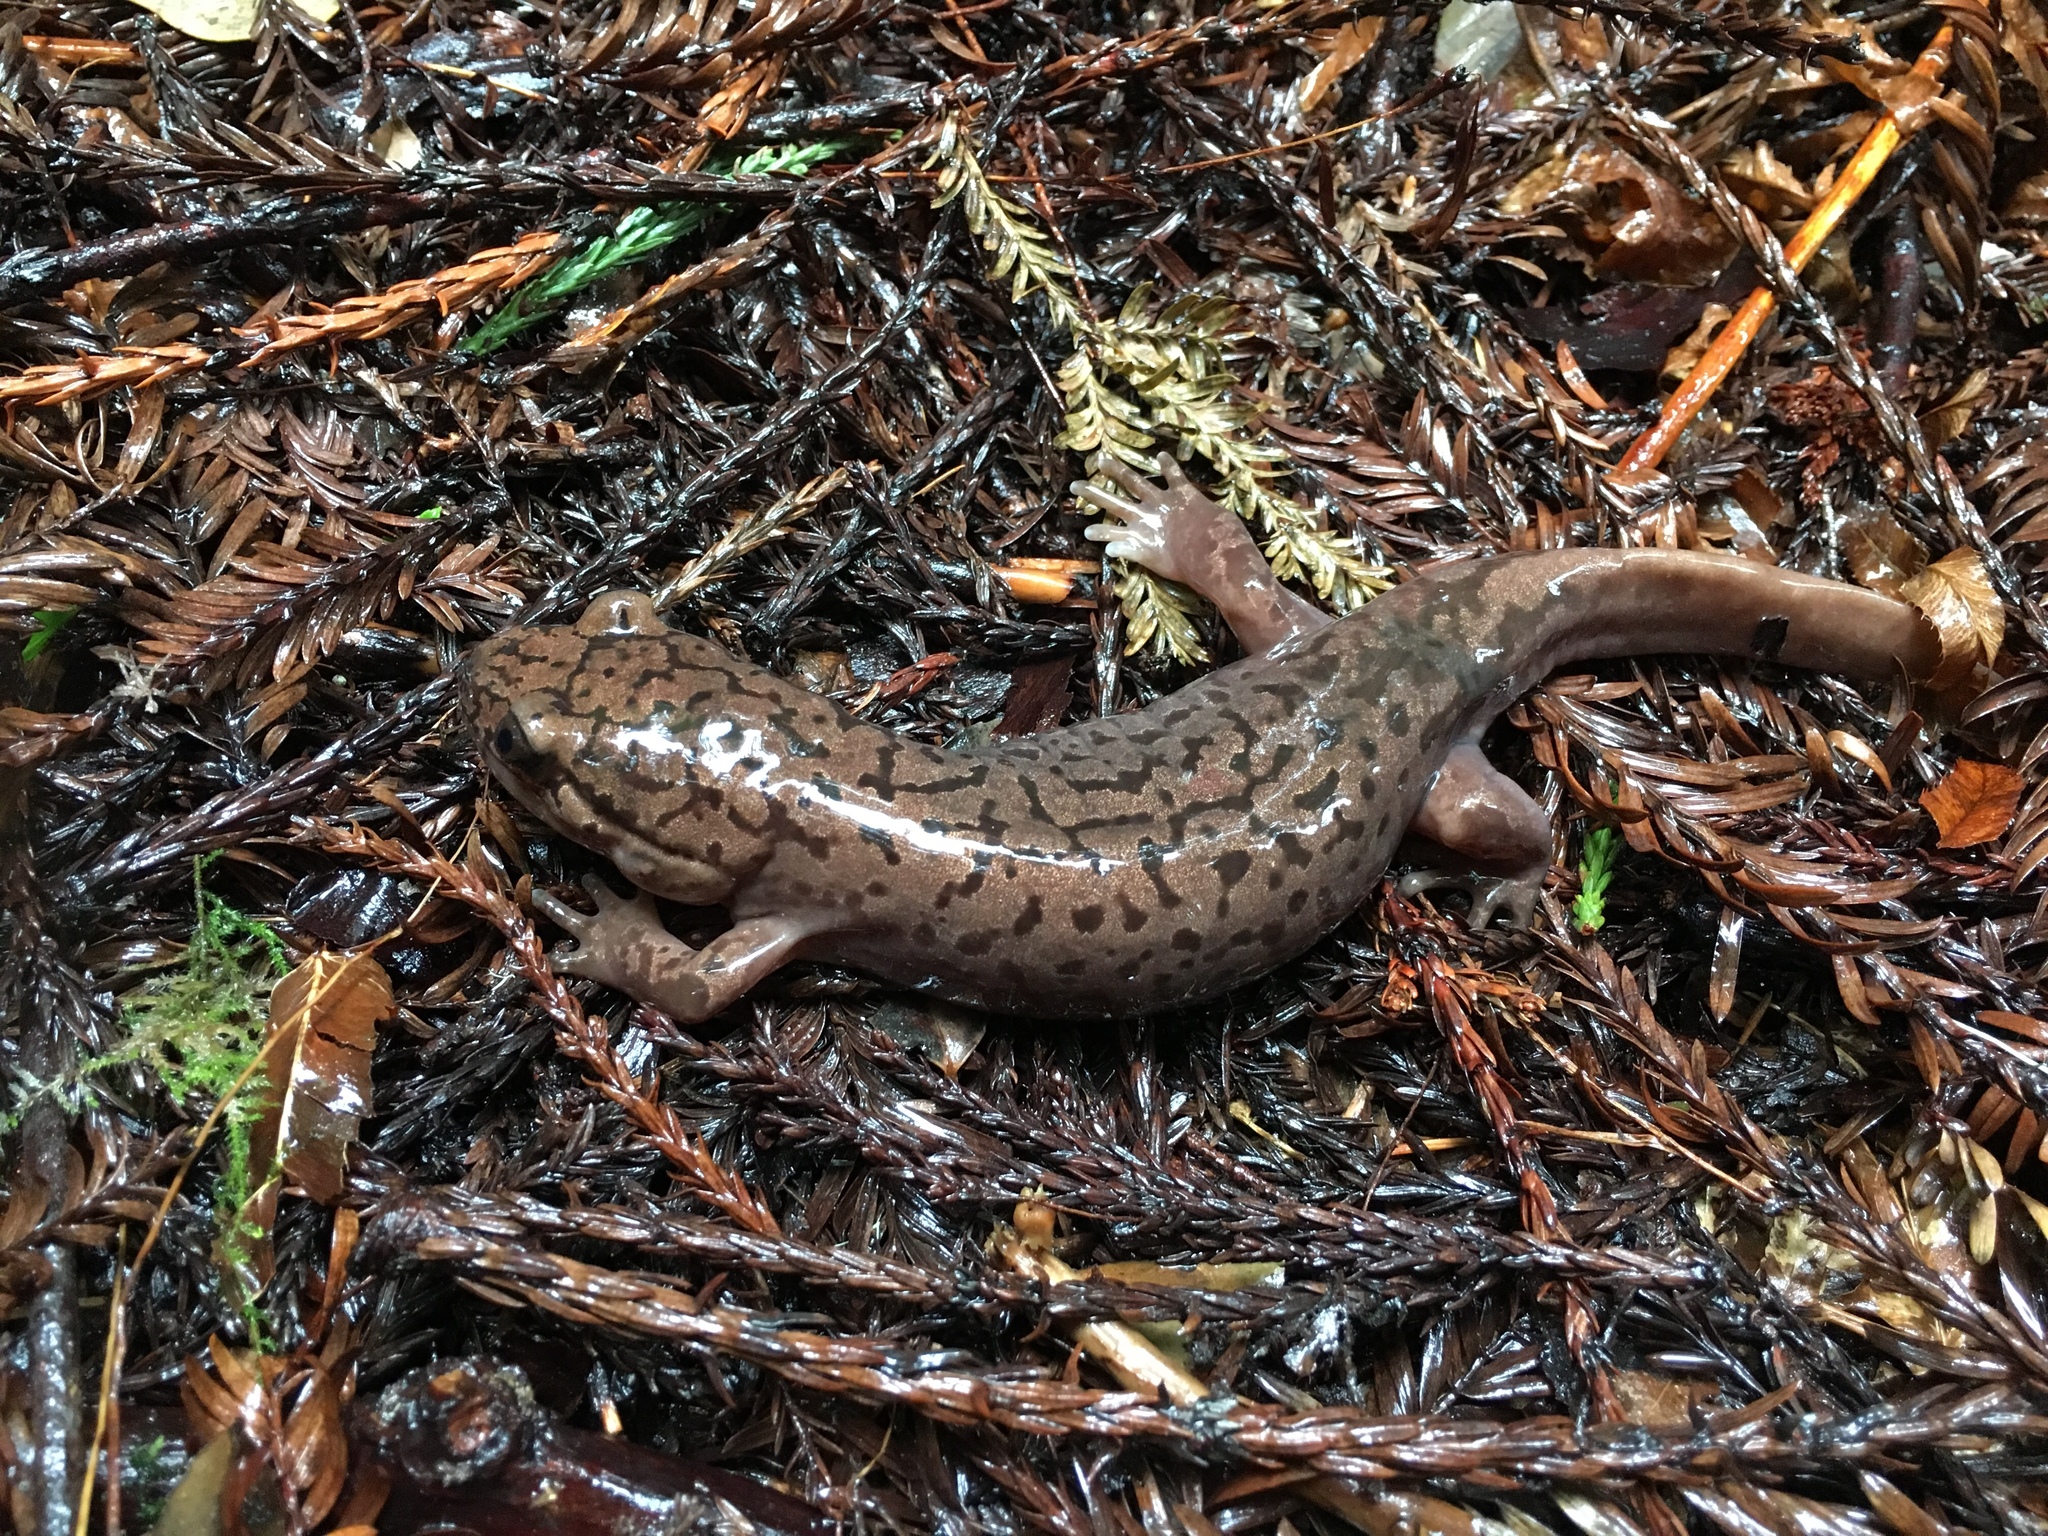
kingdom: Animalia
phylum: Chordata
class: Amphibia
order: Caudata
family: Ambystomatidae
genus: Dicamptodon
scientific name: Dicamptodon tenebrosus
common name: Coastal giant salamander
